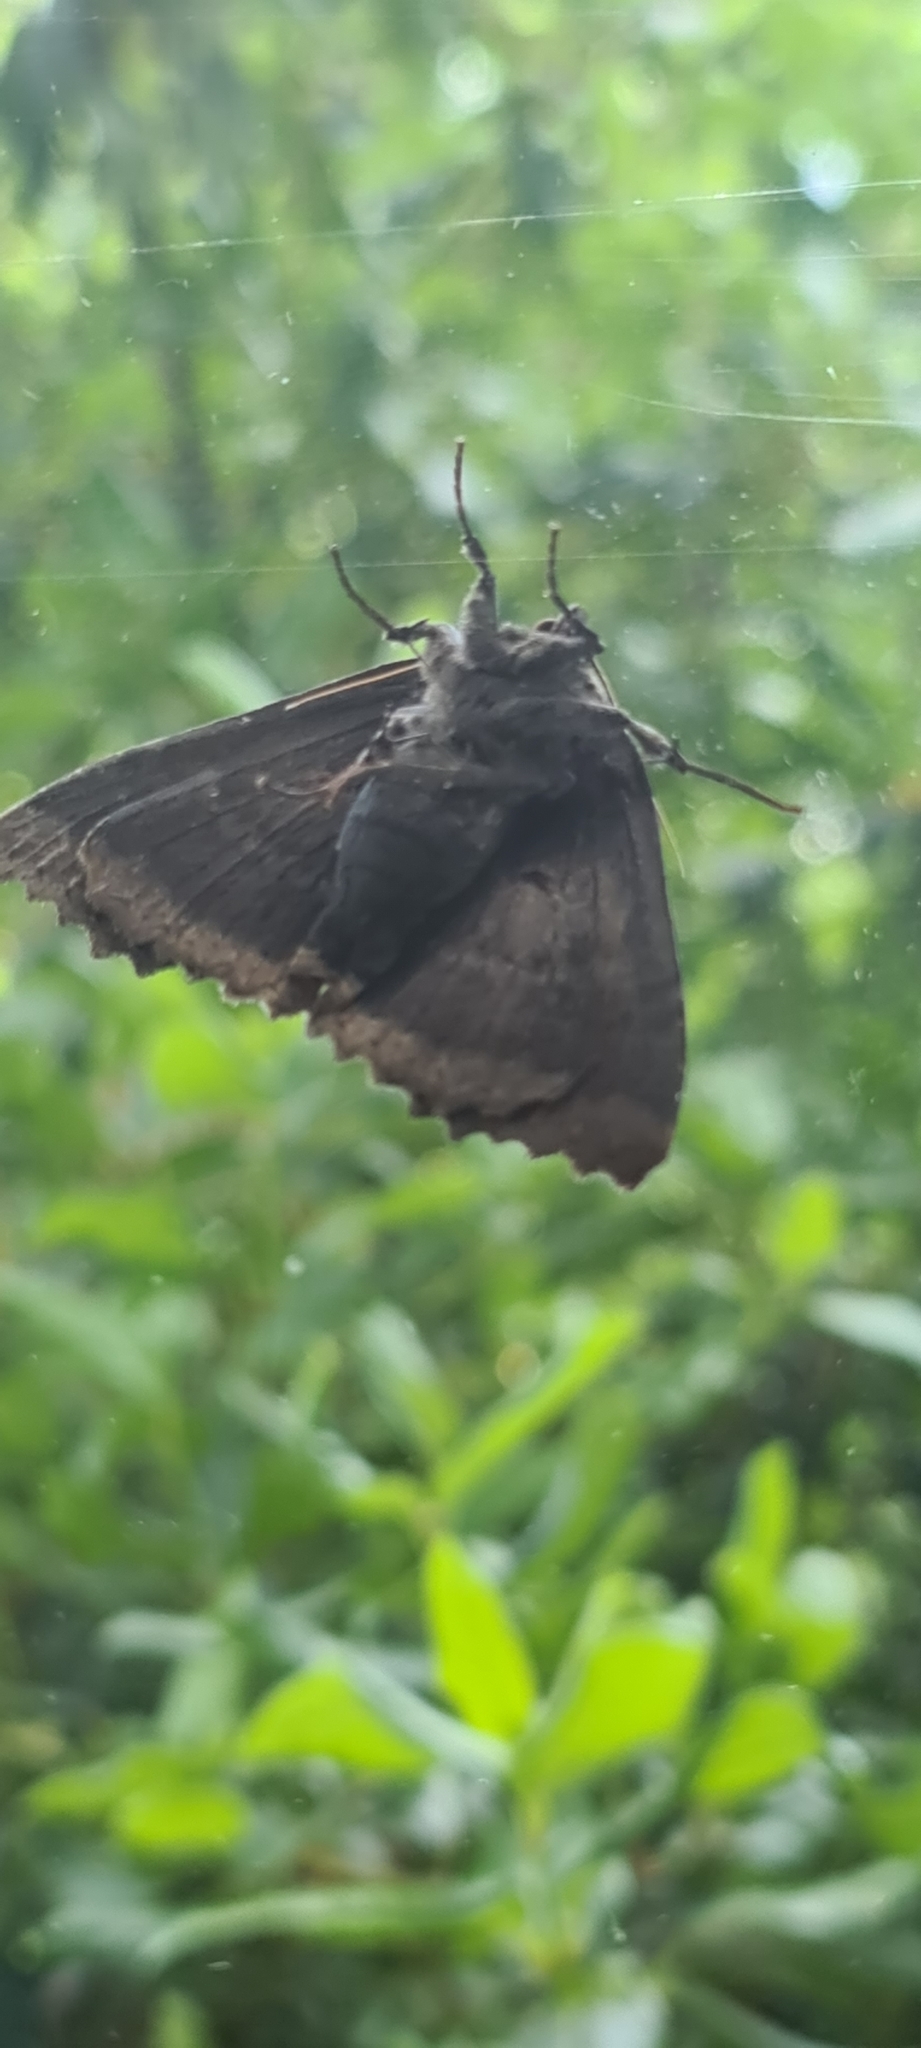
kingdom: Animalia
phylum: Arthropoda
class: Insecta
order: Lepidoptera
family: Noctuidae
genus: Mormo
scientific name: Mormo maura
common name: Old lady
